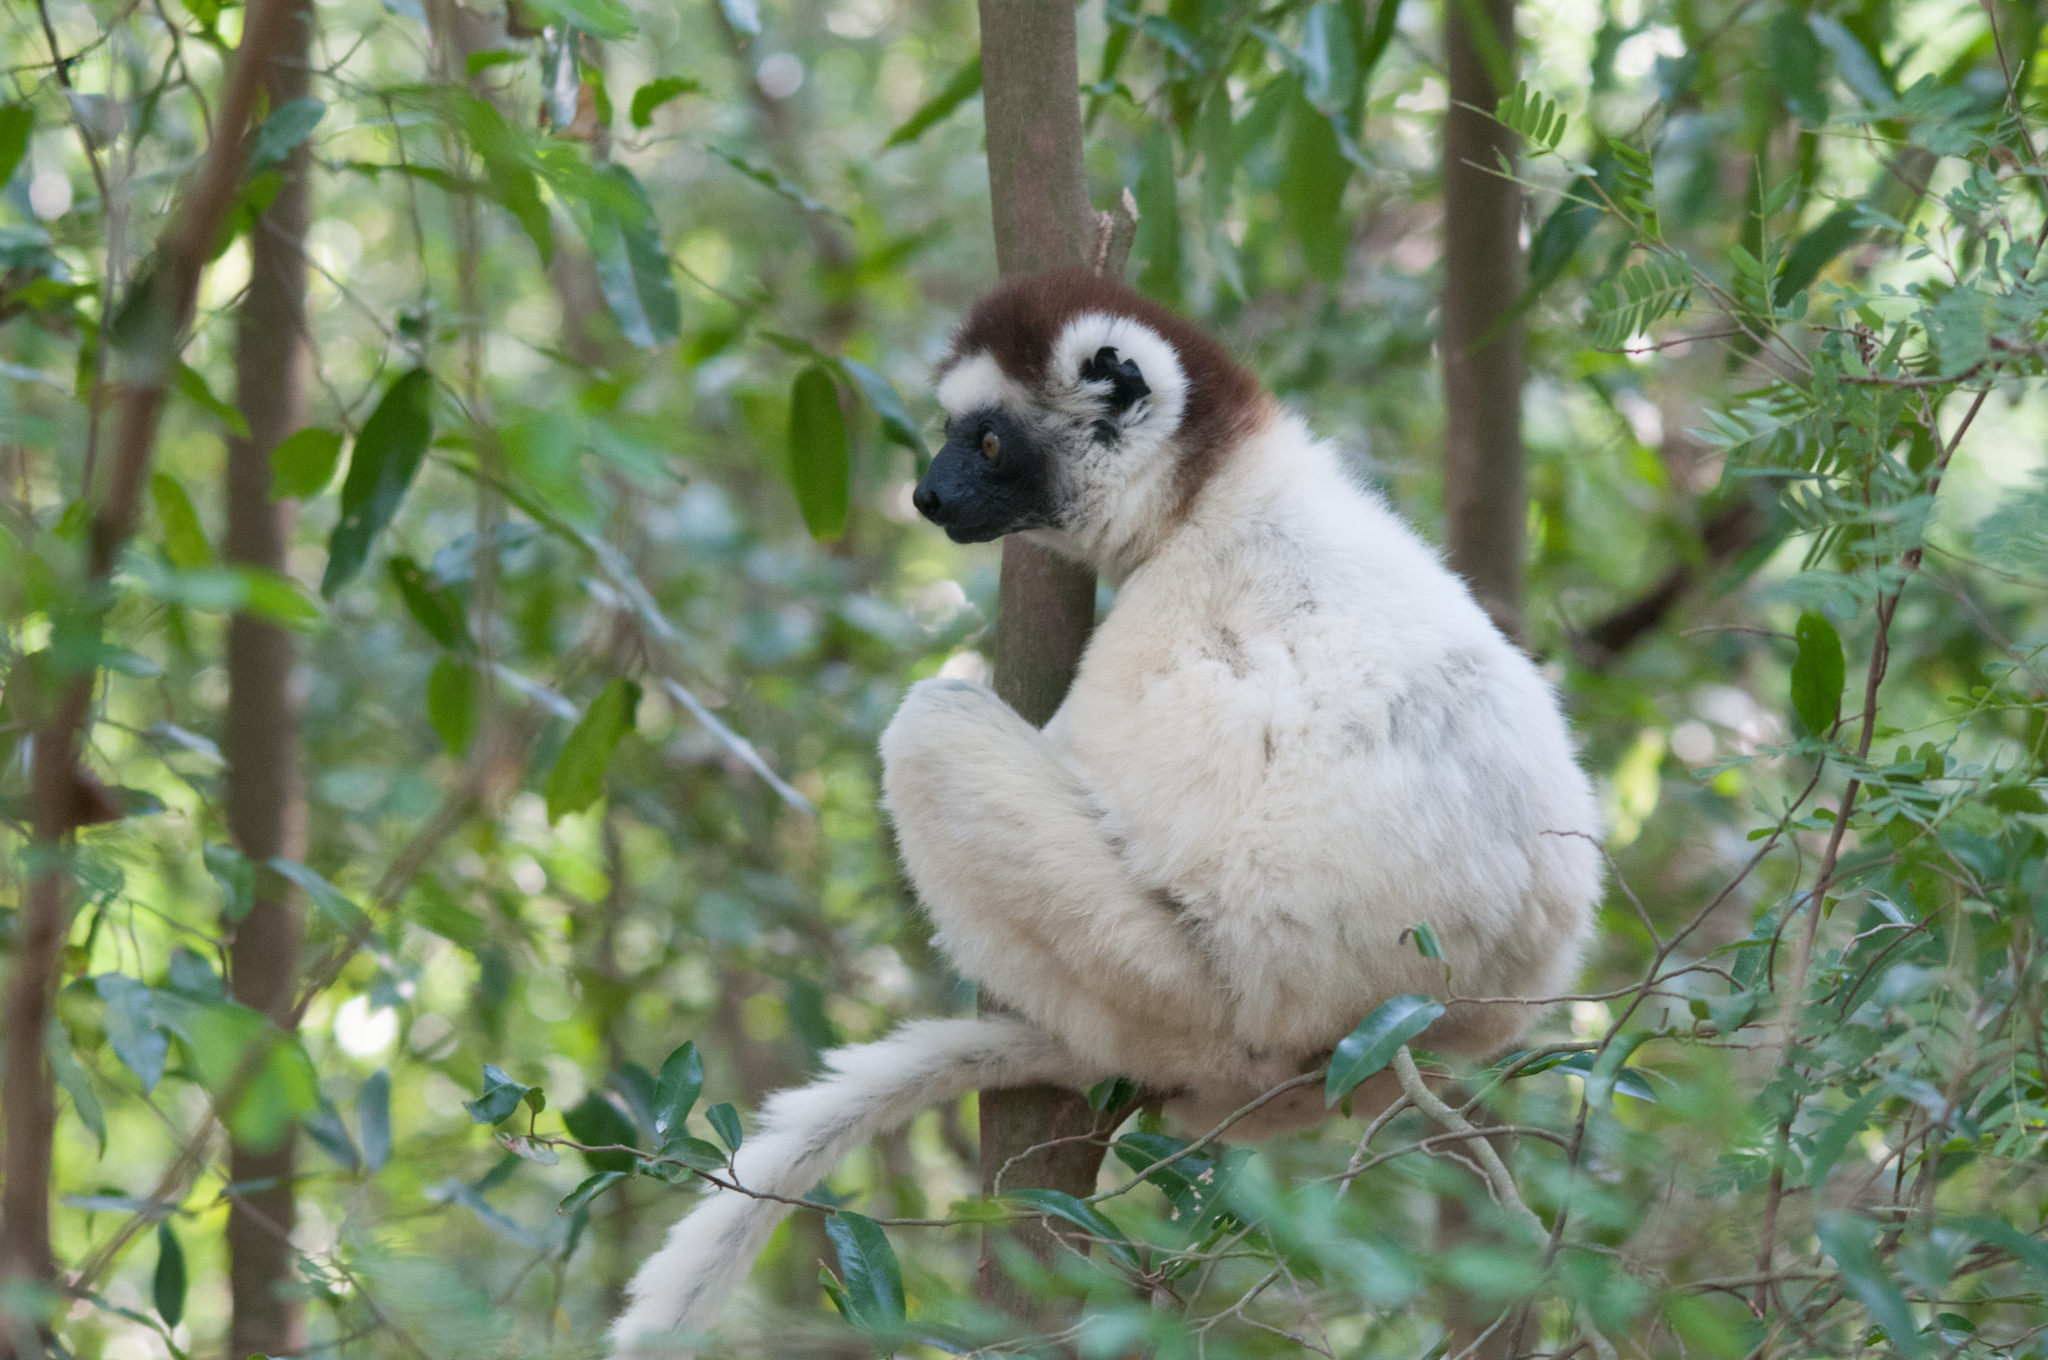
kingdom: Animalia
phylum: Chordata
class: Mammalia
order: Primates
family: Indriidae
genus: Propithecus
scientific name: Propithecus verreauxi
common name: Verreaux's sifaka
